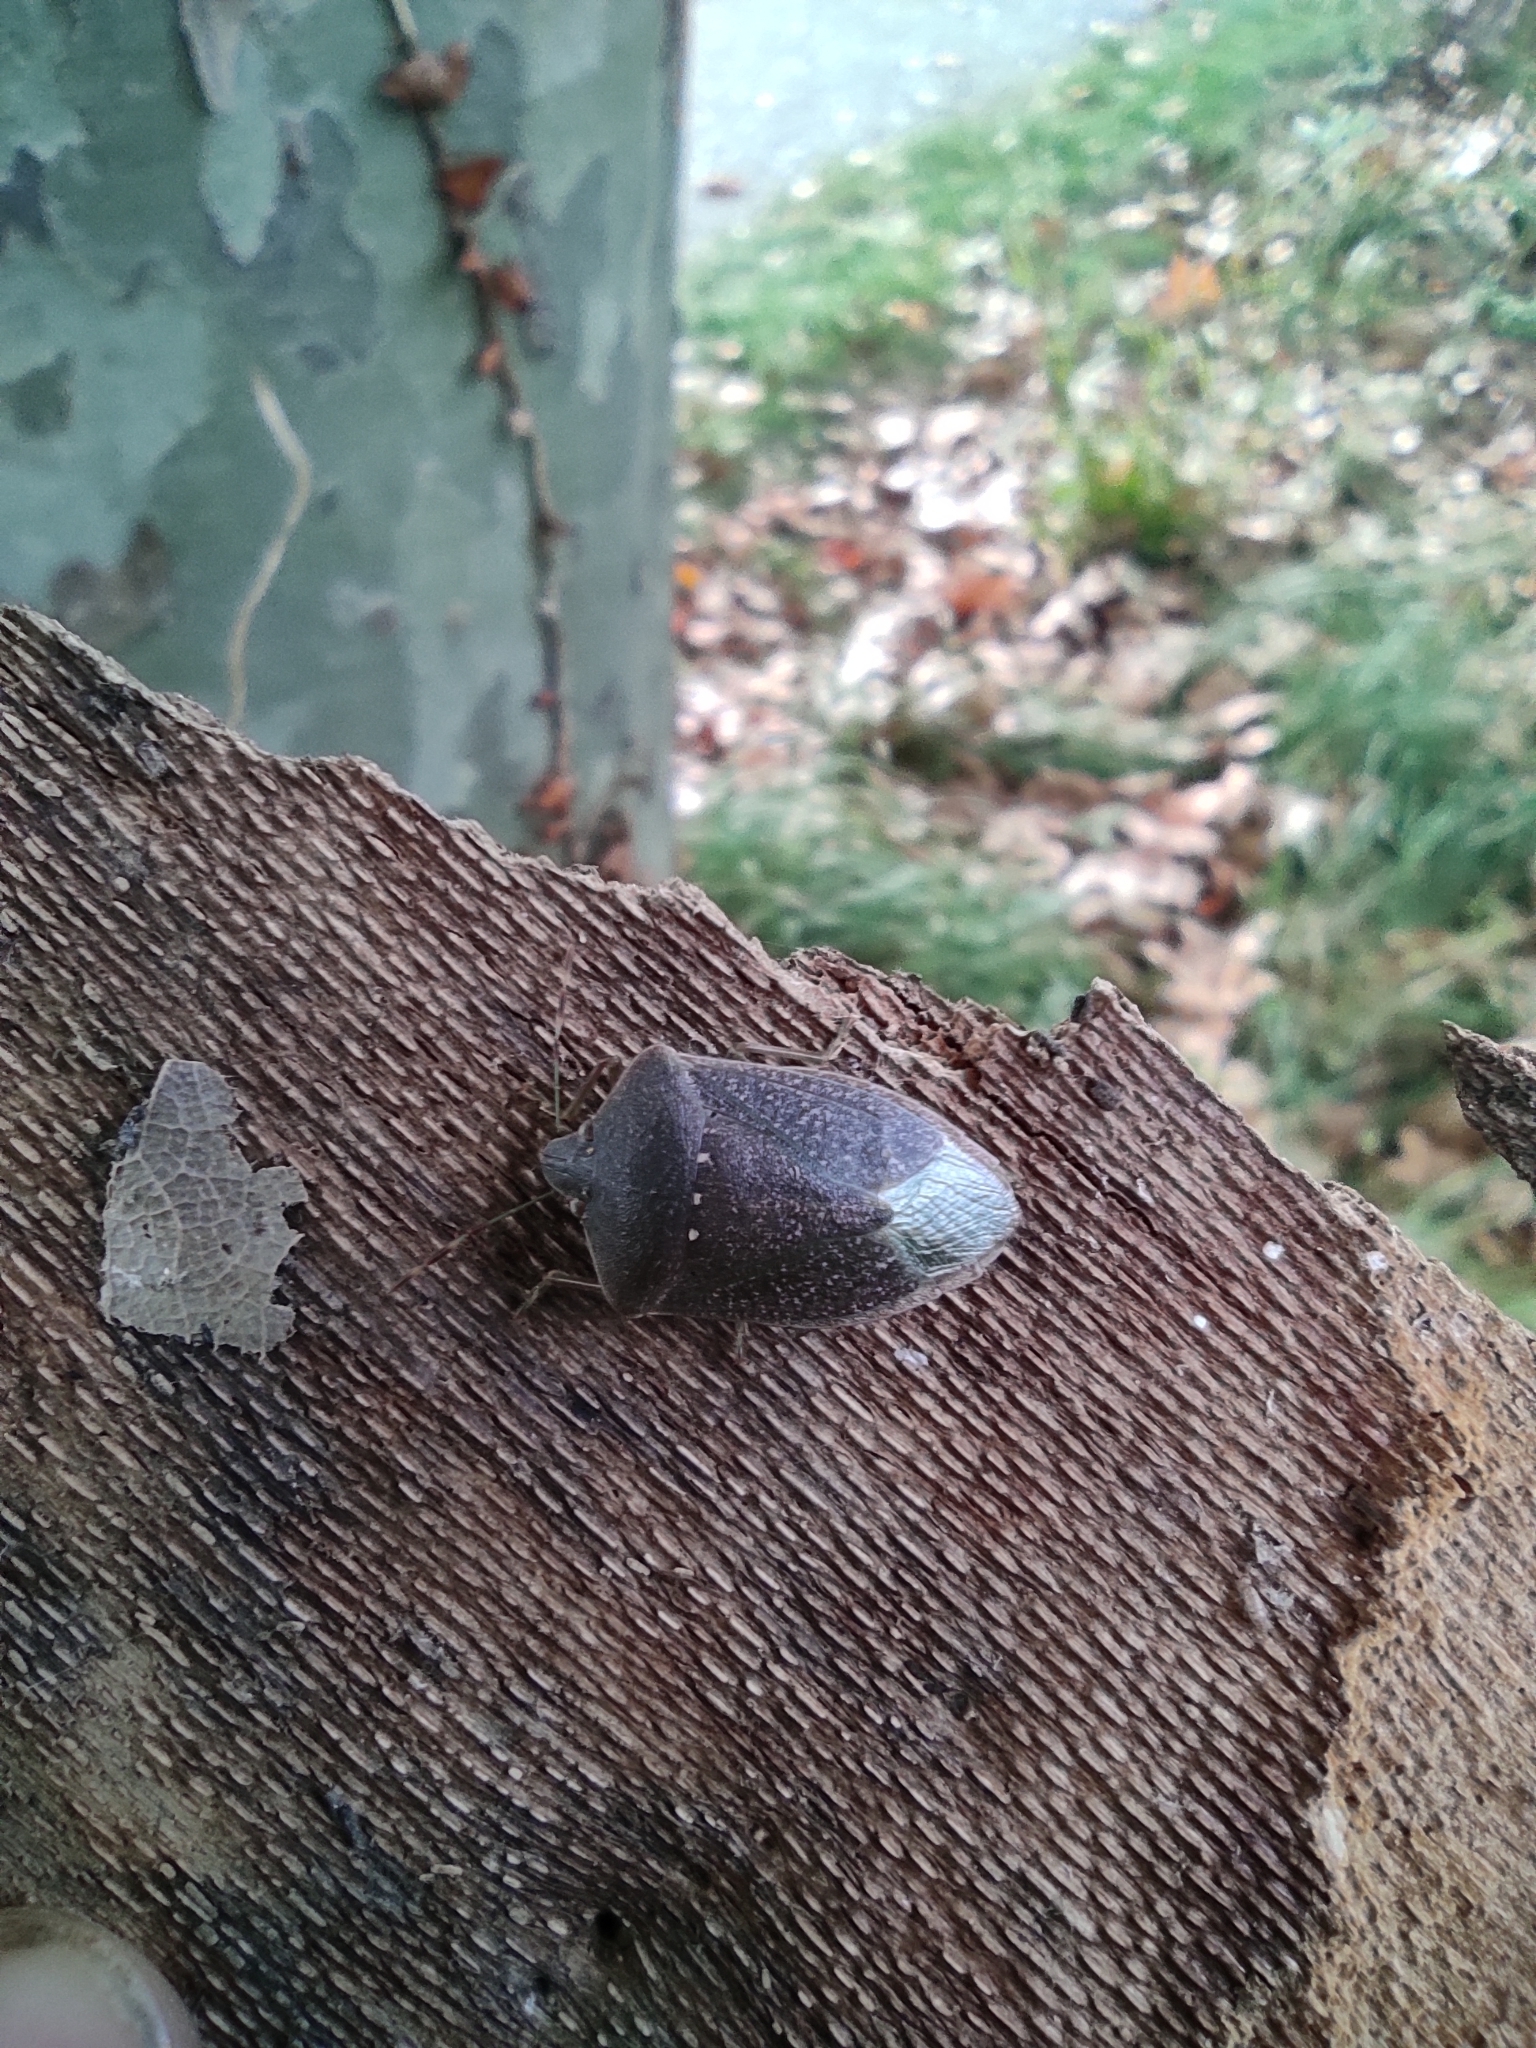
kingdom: Animalia
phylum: Arthropoda
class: Insecta
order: Hemiptera
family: Pentatomidae
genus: Nezara
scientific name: Nezara viridula
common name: Southern green stink bug
